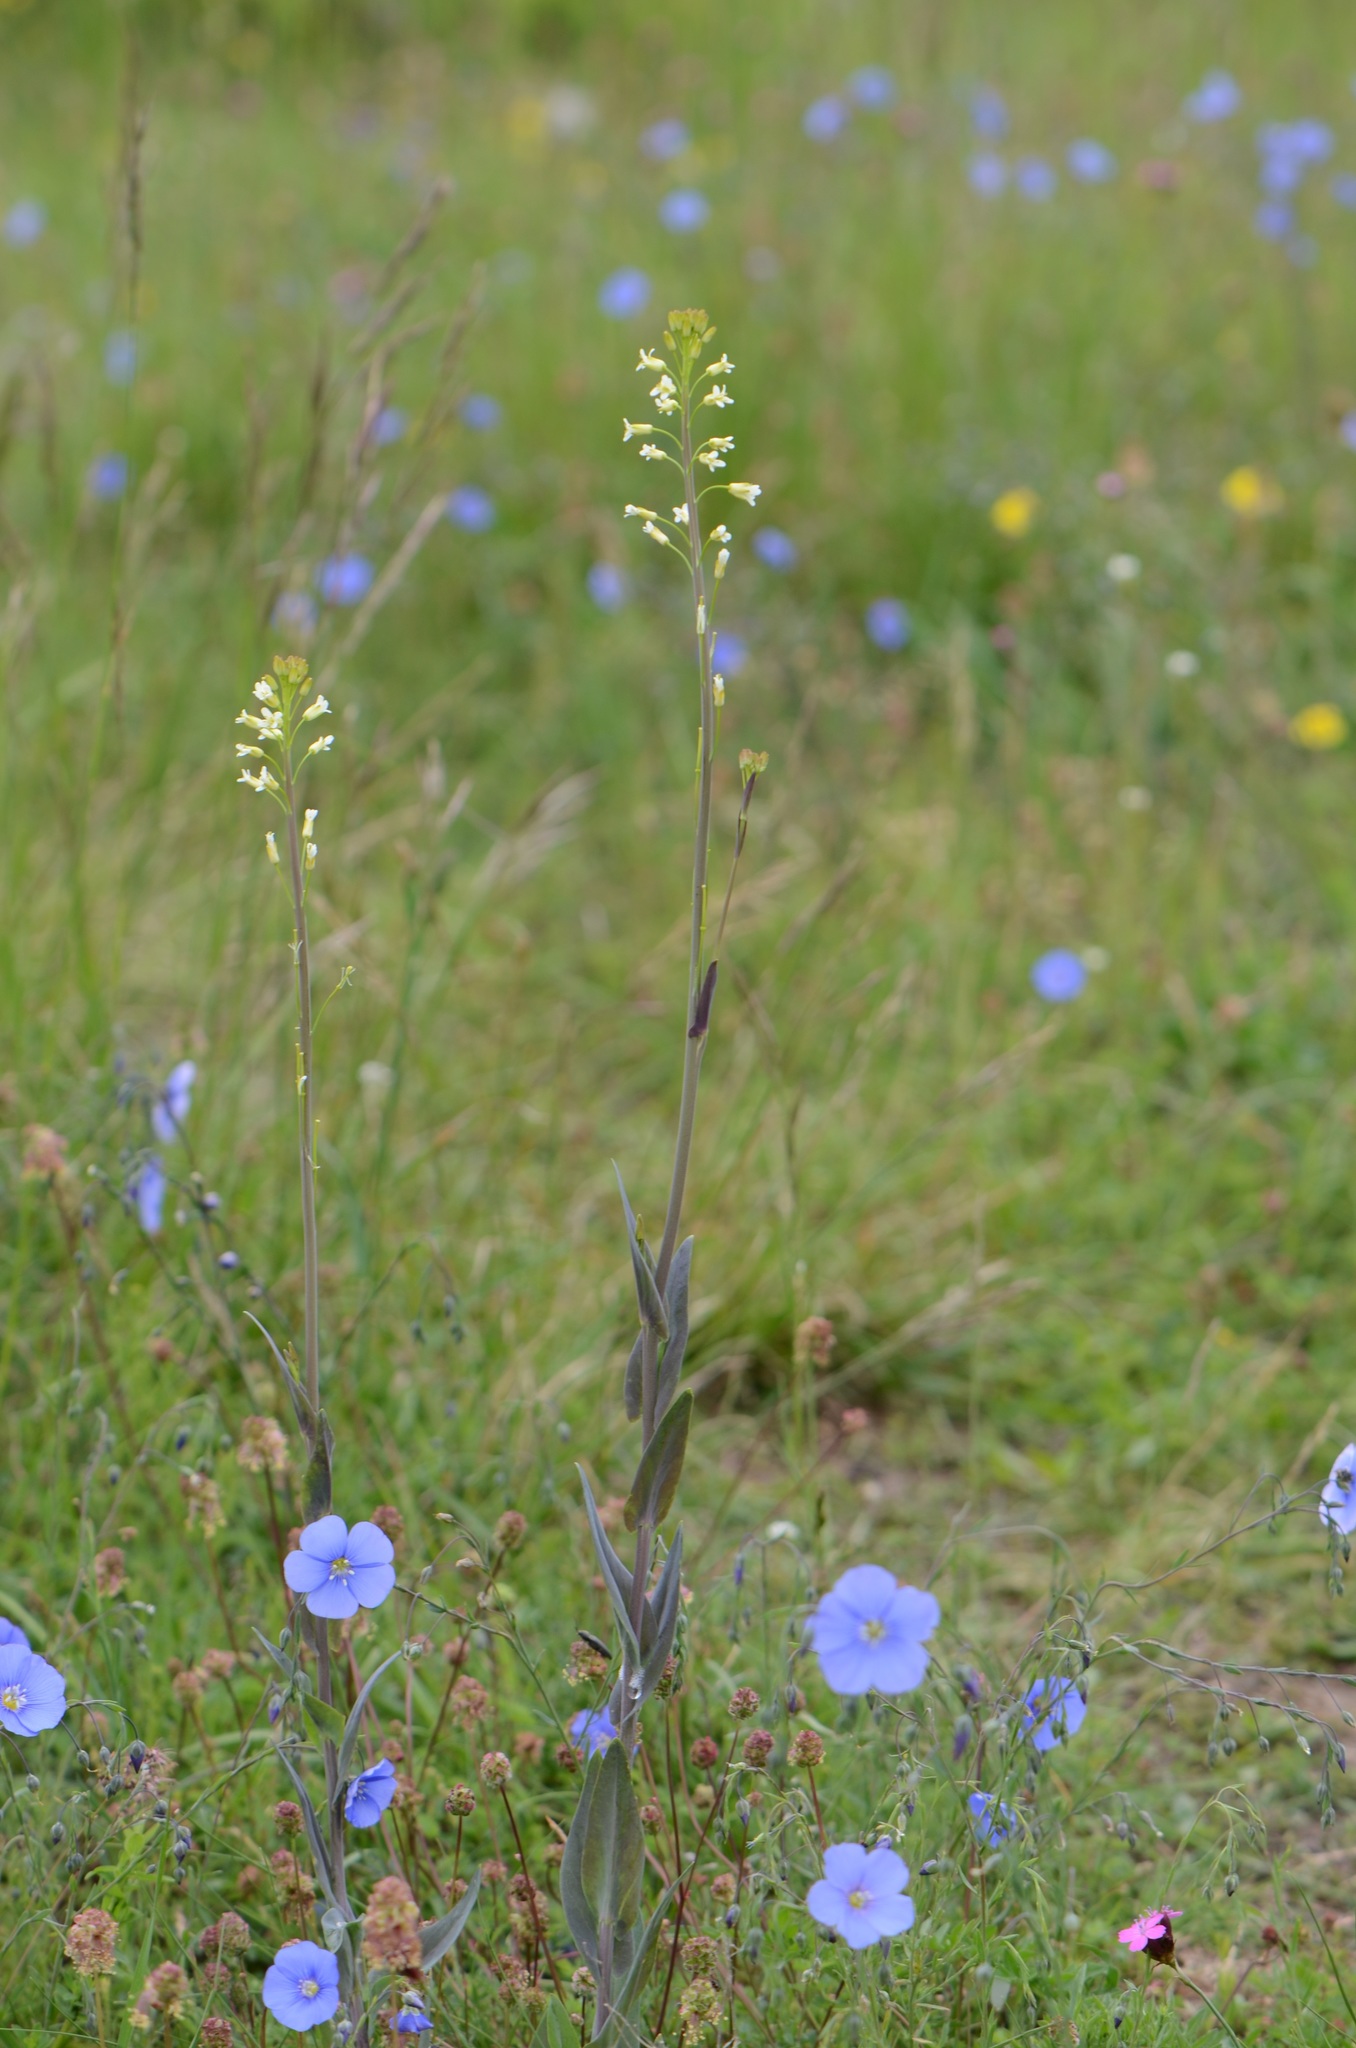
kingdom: Plantae
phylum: Tracheophyta
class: Magnoliopsida
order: Brassicales
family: Brassicaceae
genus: Turritis
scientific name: Turritis glabra
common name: Tower rockcress
